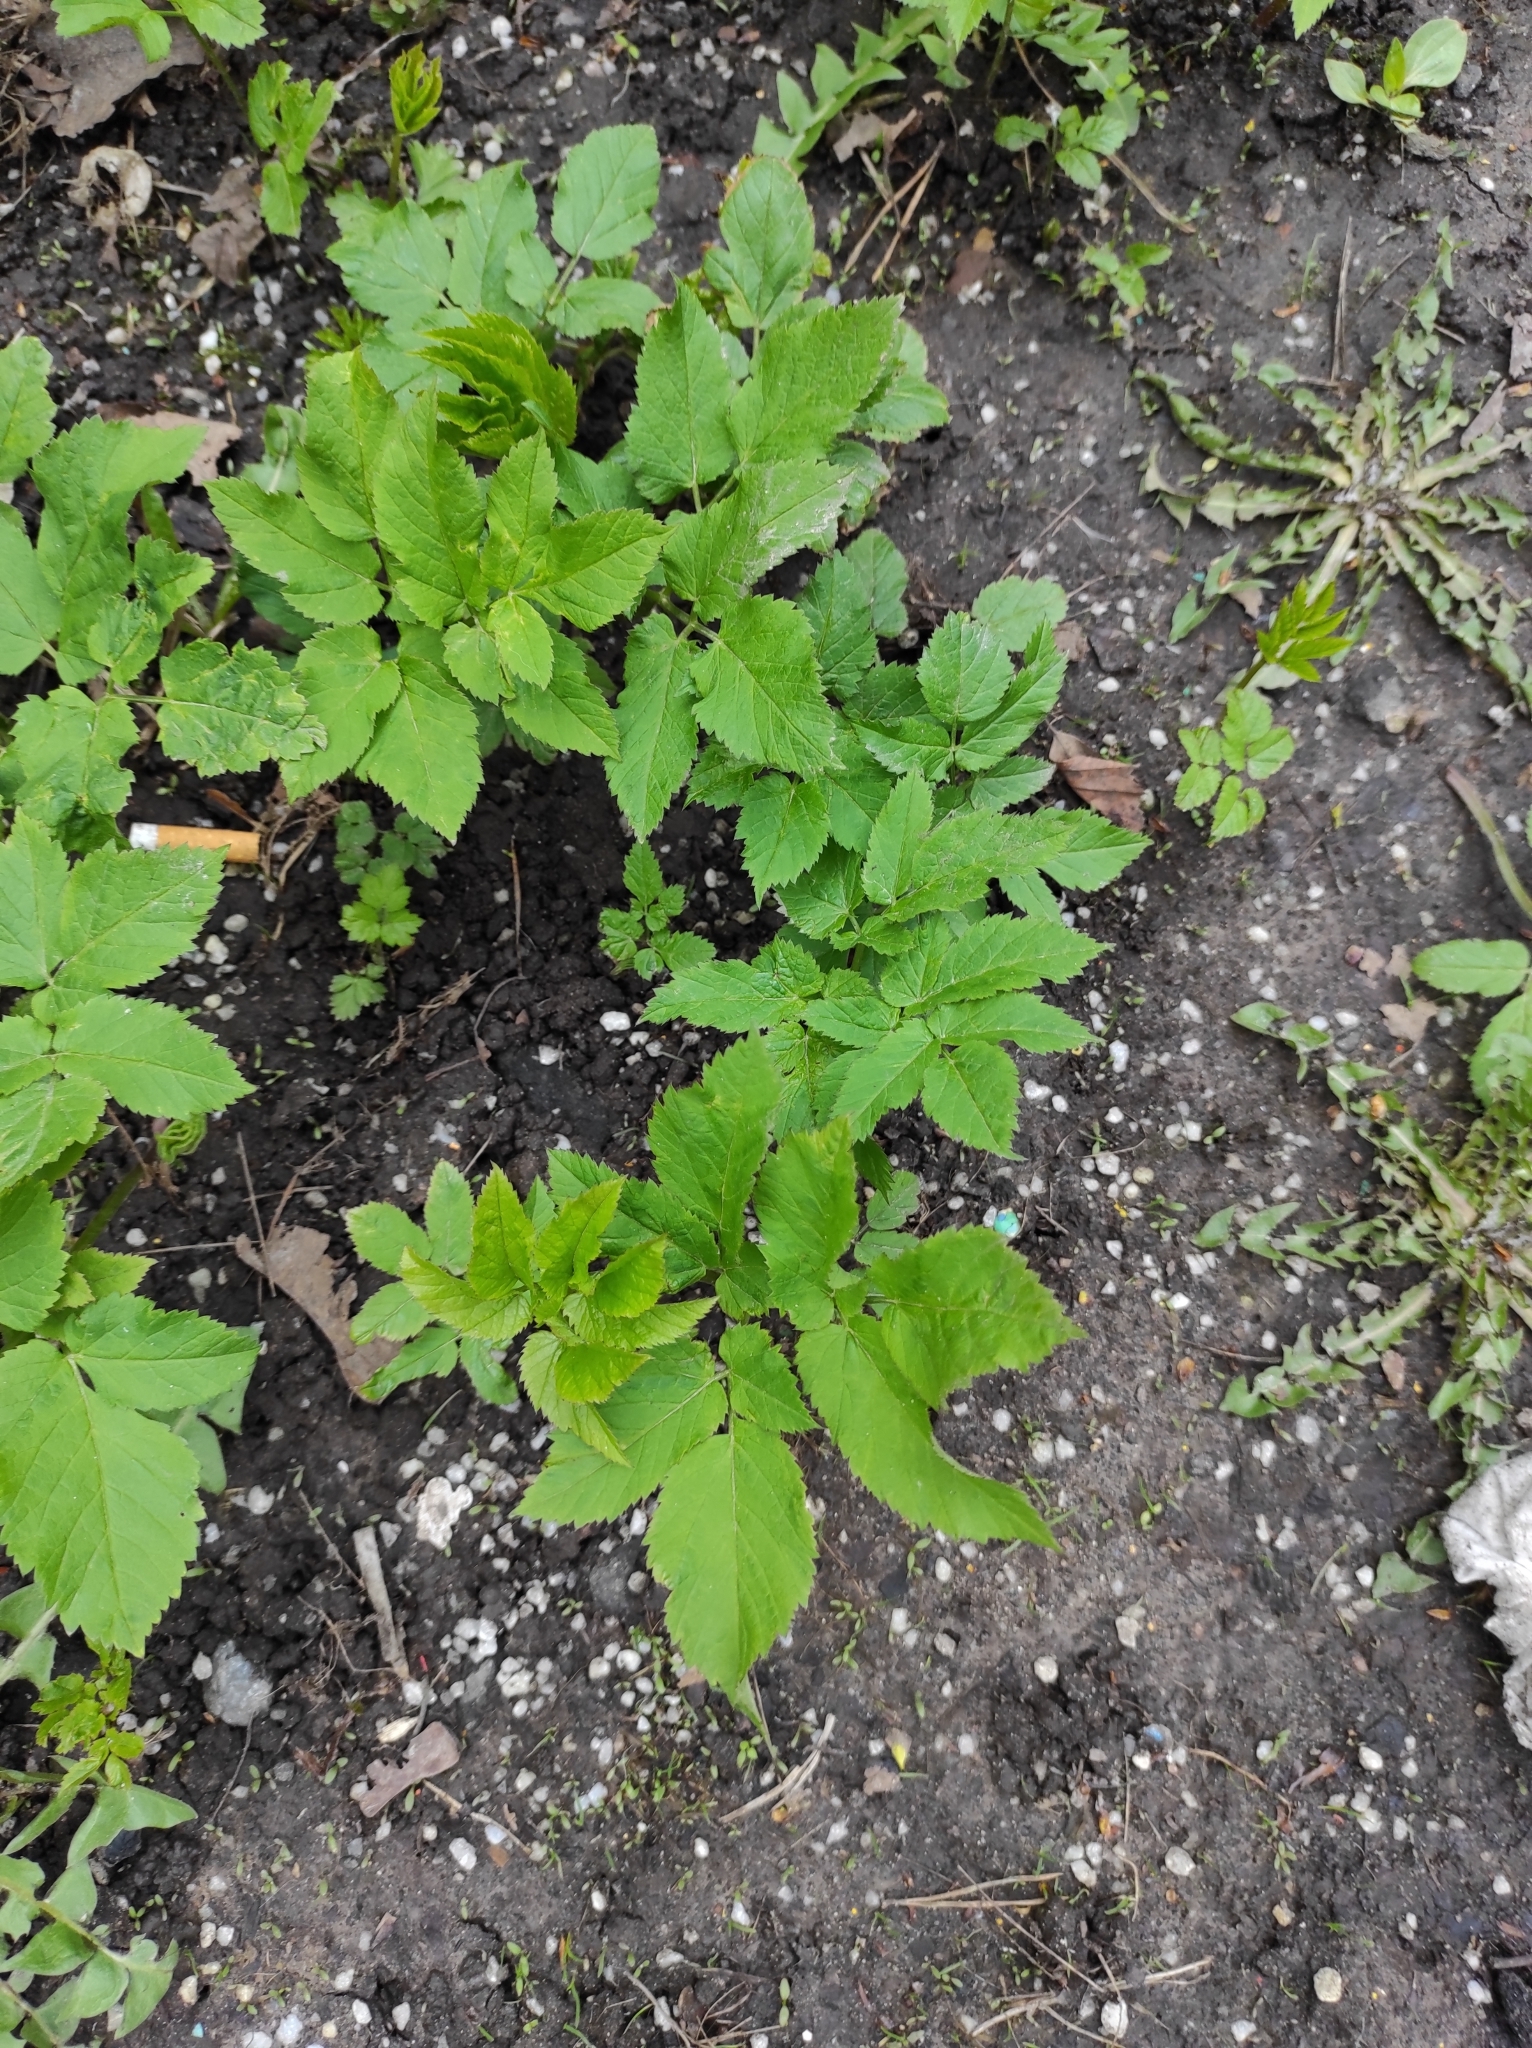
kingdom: Plantae
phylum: Tracheophyta
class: Magnoliopsida
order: Apiales
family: Apiaceae
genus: Aegopodium
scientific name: Aegopodium podagraria
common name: Ground-elder
